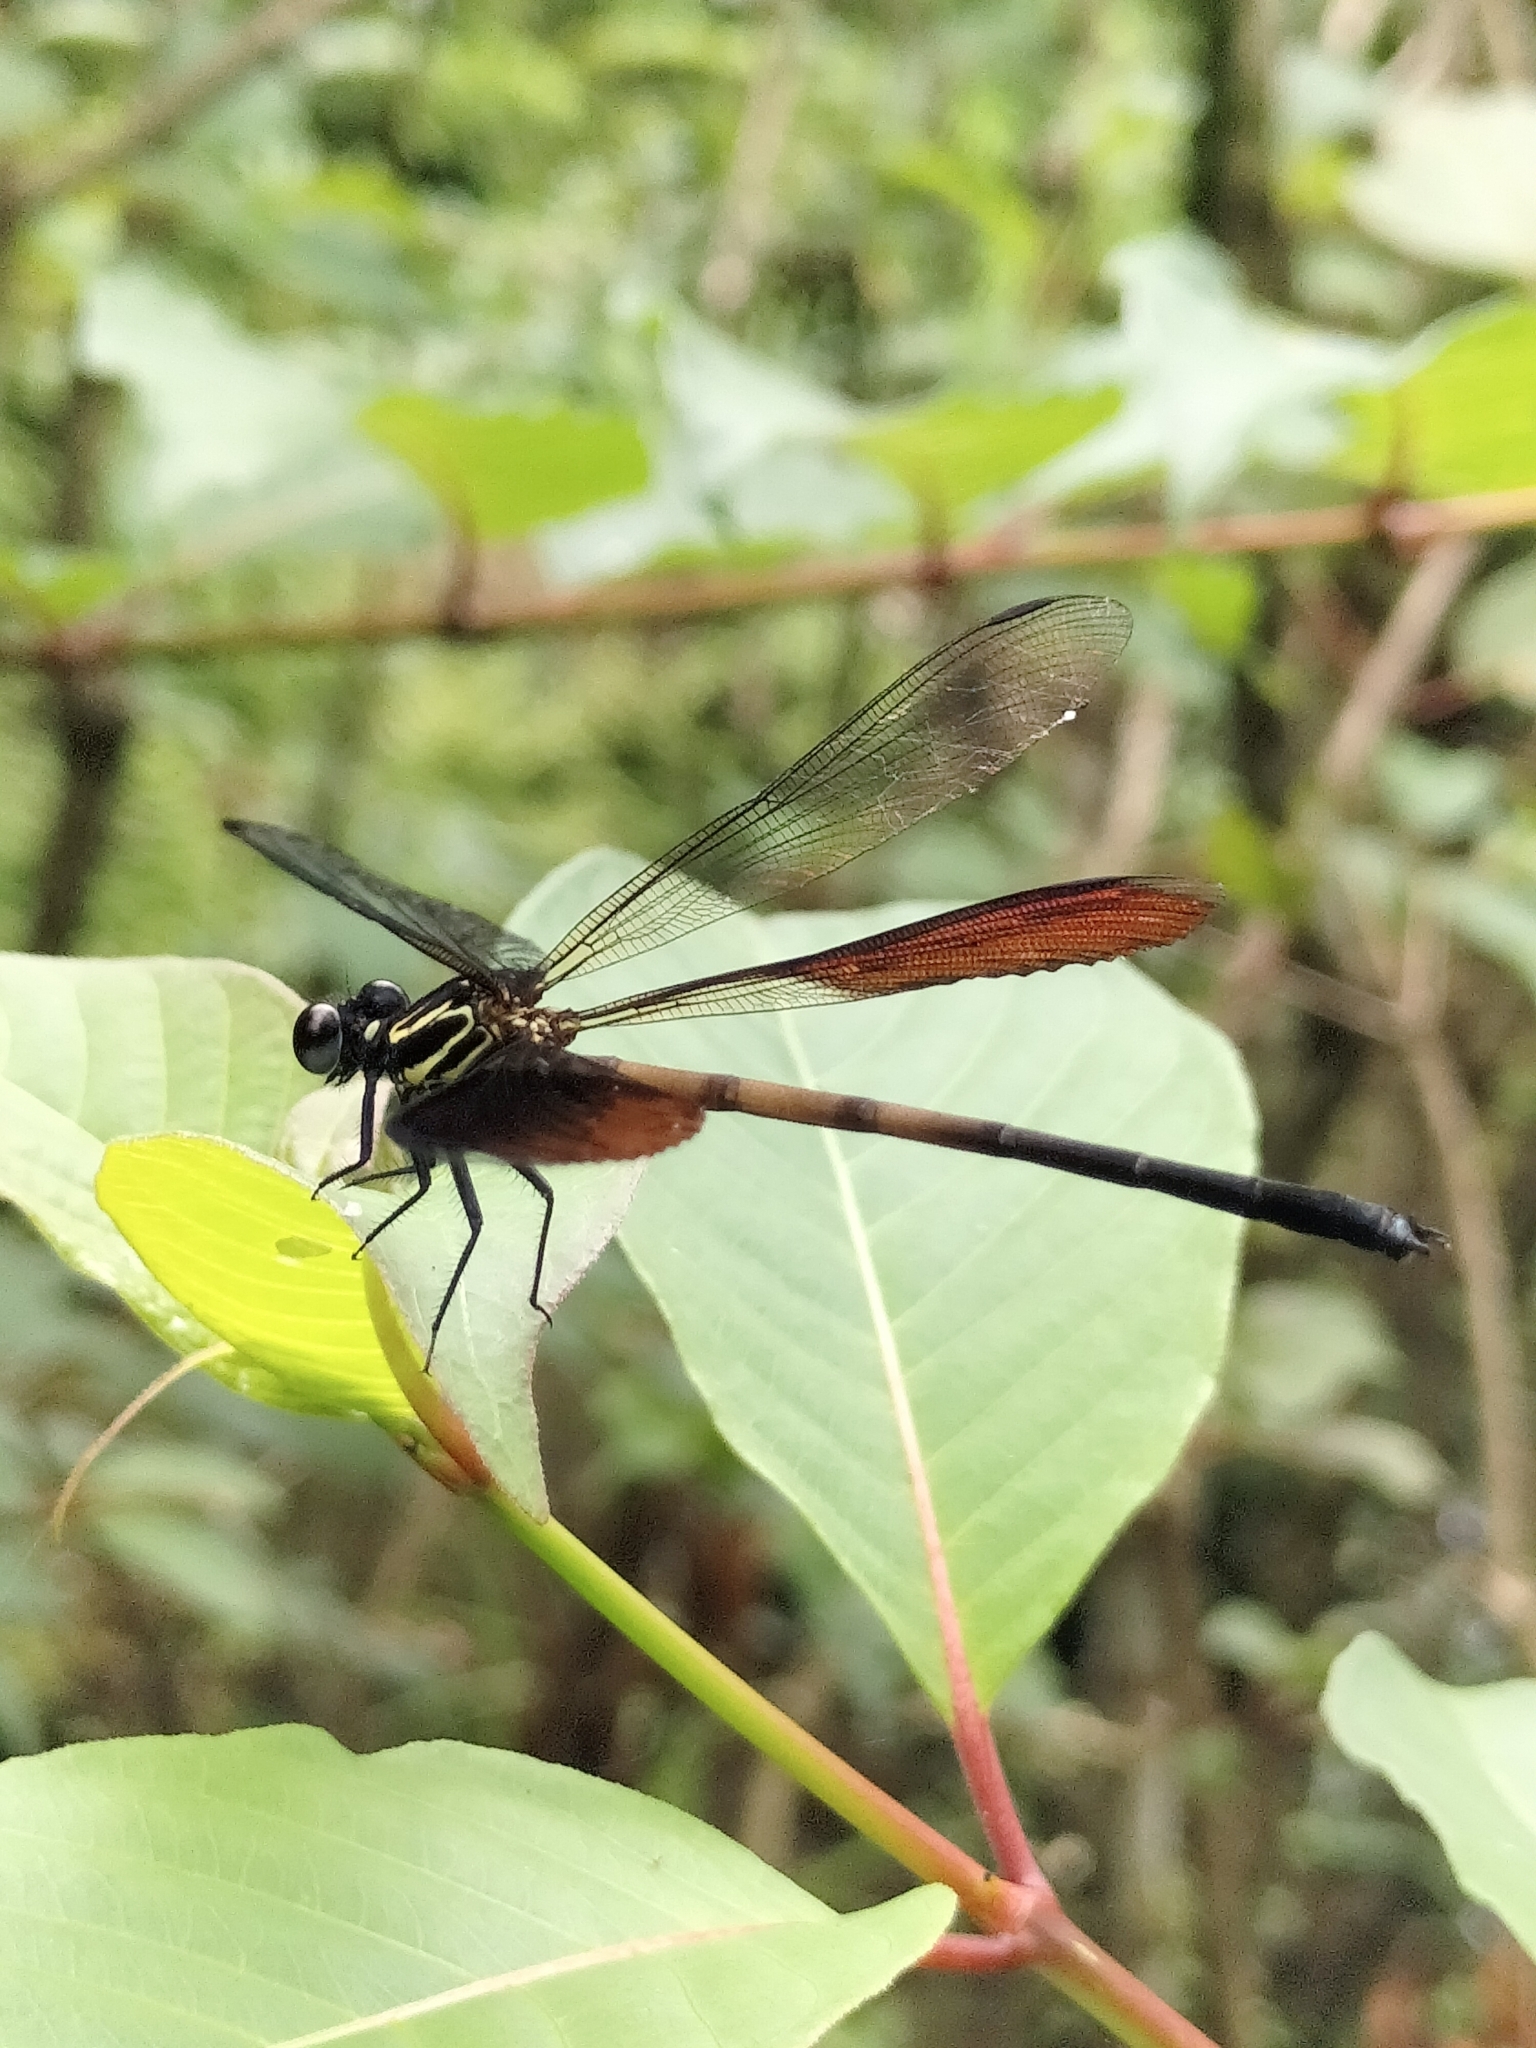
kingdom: Animalia
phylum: Arthropoda
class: Insecta
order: Odonata
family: Euphaeidae
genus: Euphaea
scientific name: Euphaea formosa
